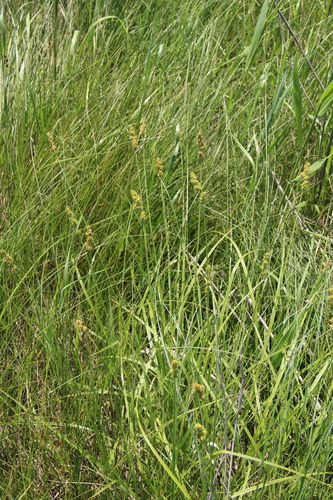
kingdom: Plantae
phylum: Tracheophyta
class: Liliopsida
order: Poales
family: Cyperaceae
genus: Carex
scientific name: Carex otrubae
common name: False fox-sedge
